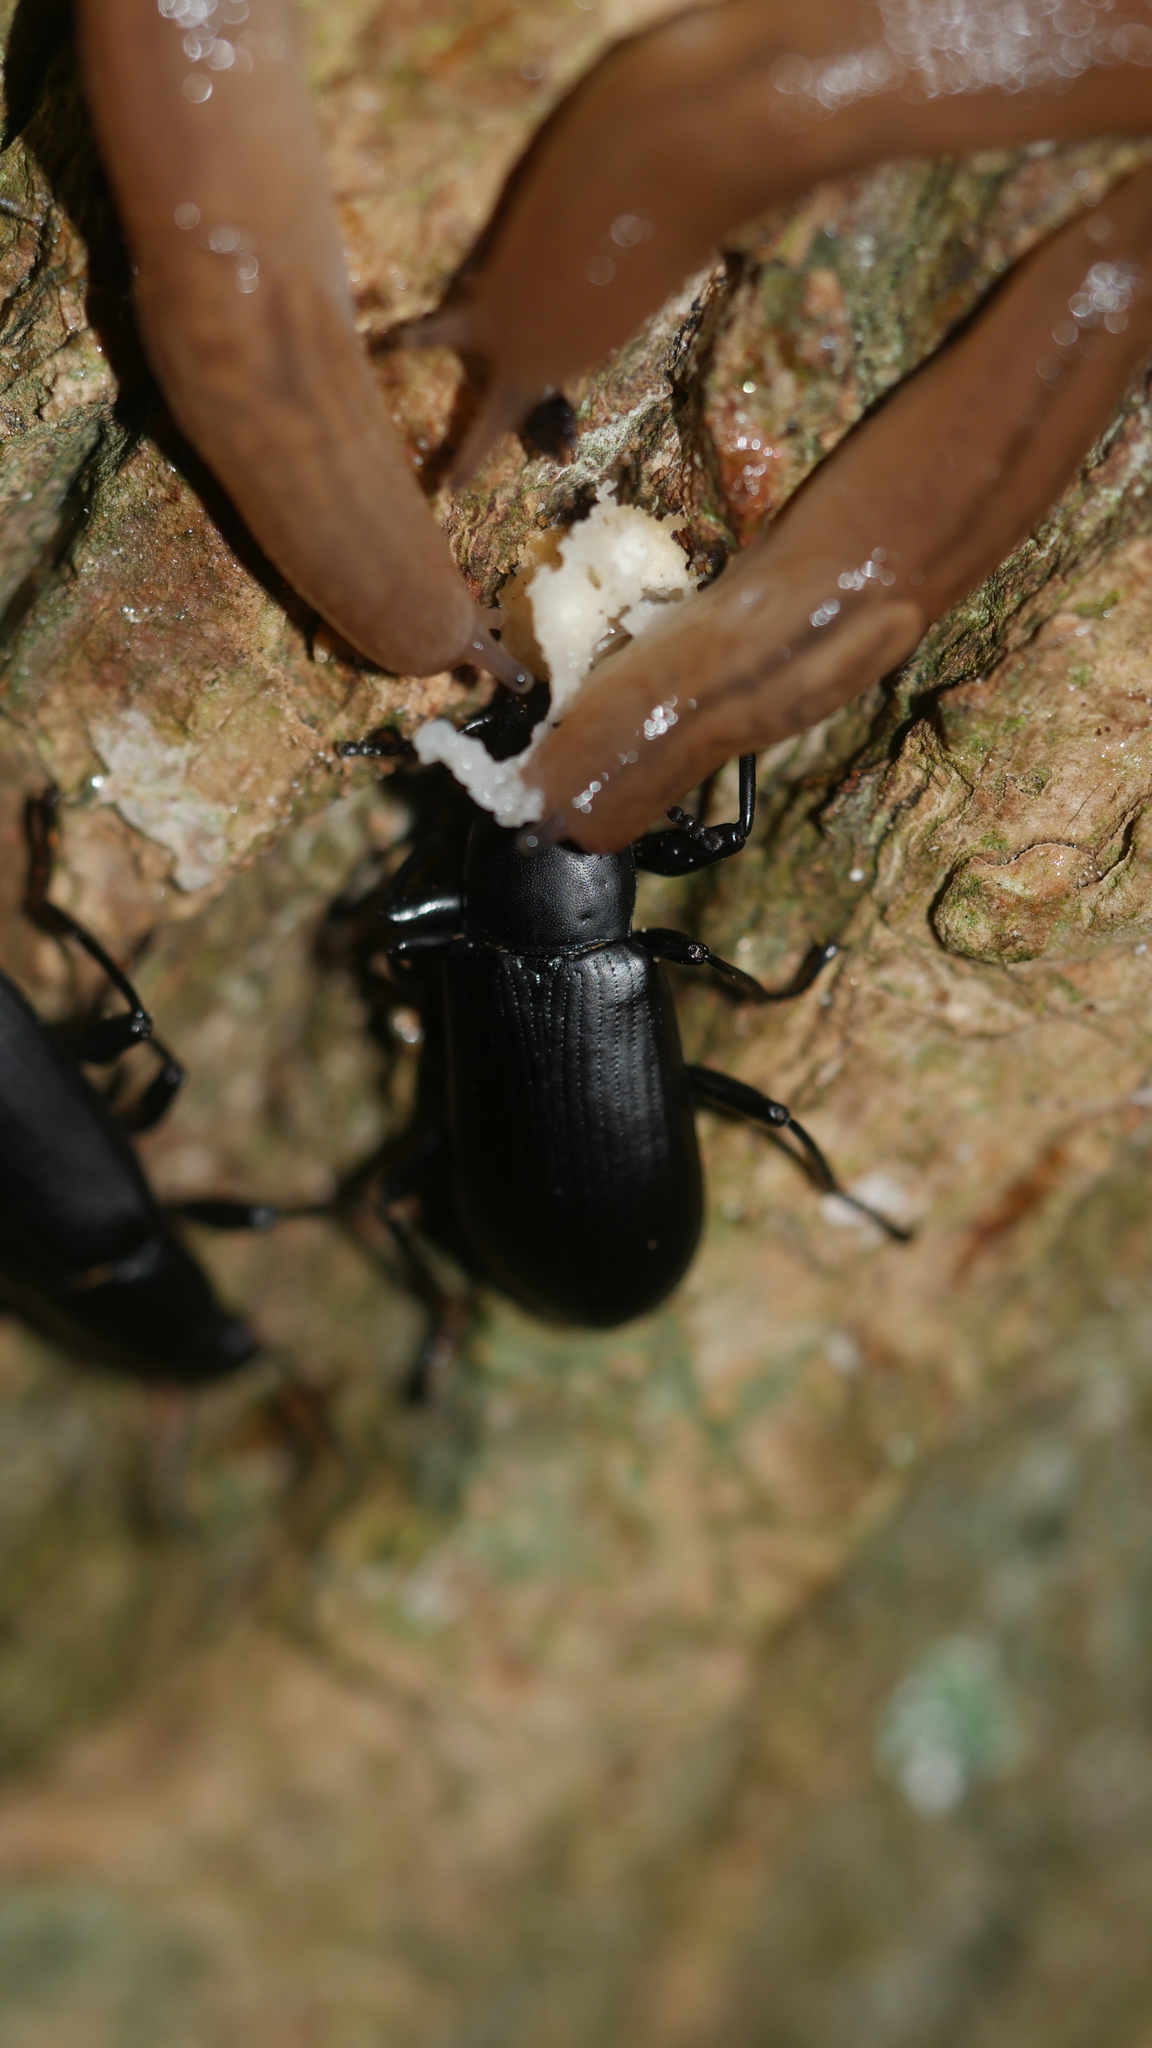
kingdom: Animalia
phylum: Arthropoda
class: Insecta
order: Coleoptera
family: Tenebrionidae
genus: Alobates
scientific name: Alobates
